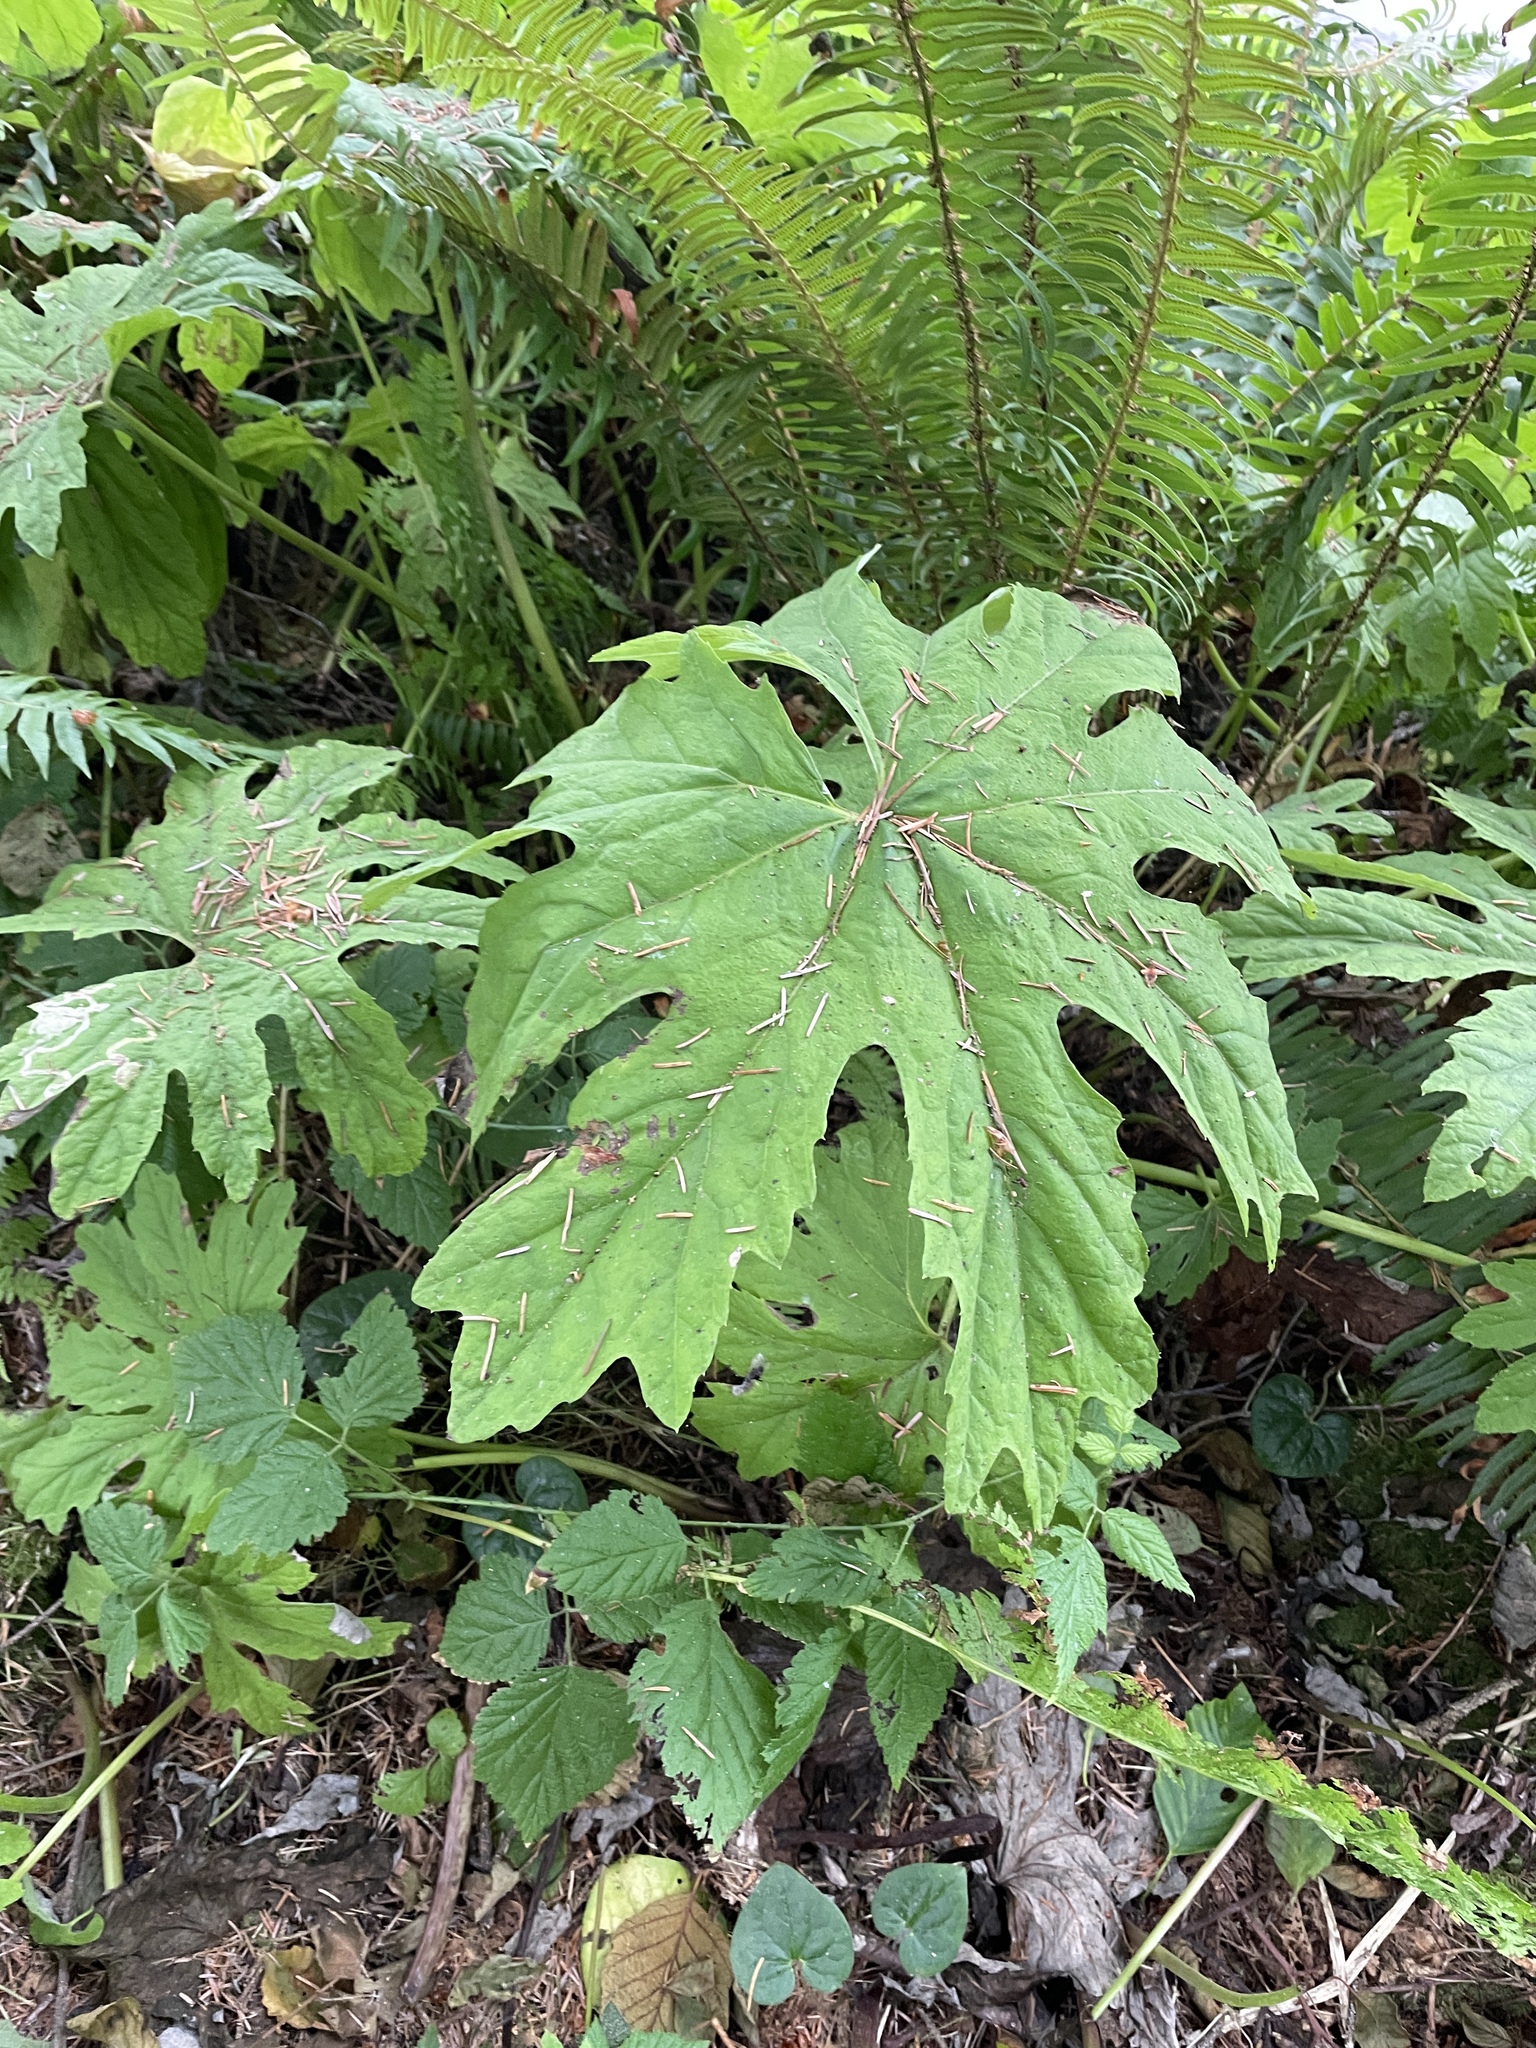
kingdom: Plantae
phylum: Tracheophyta
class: Magnoliopsida
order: Asterales
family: Asteraceae
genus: Petasites
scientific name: Petasites frigidus
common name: Arctic butterbur
